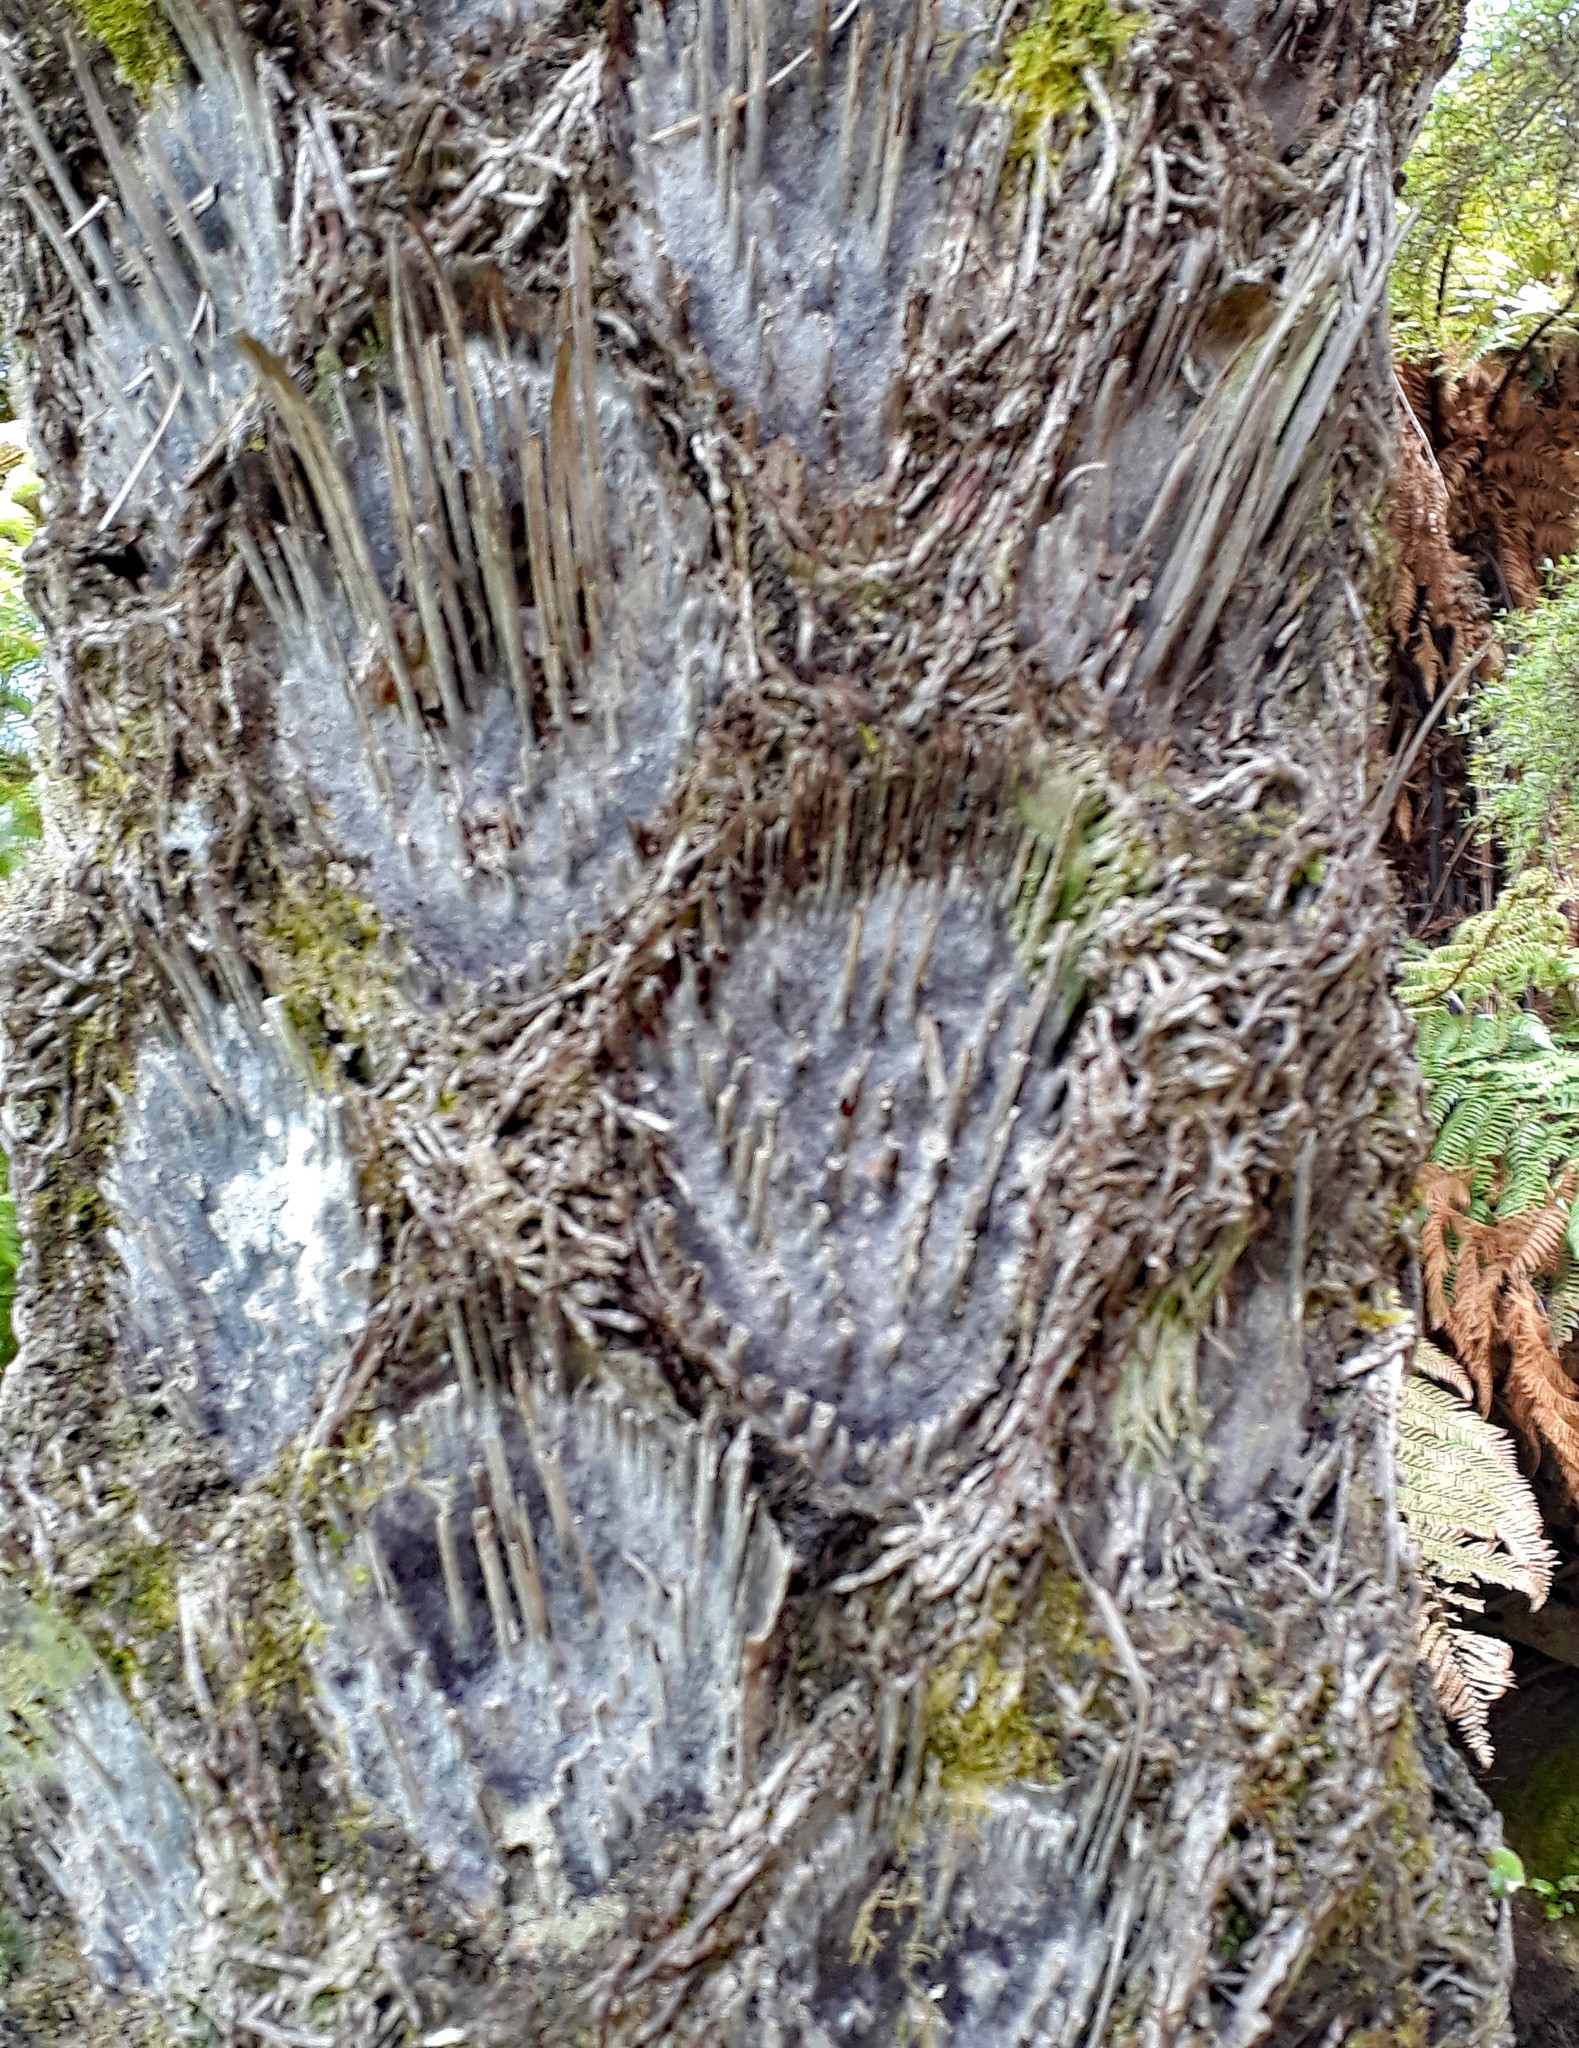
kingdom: Plantae
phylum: Tracheophyta
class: Polypodiopsida
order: Cyatheales
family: Cyatheaceae
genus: Sphaeropteris
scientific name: Sphaeropteris medullaris
